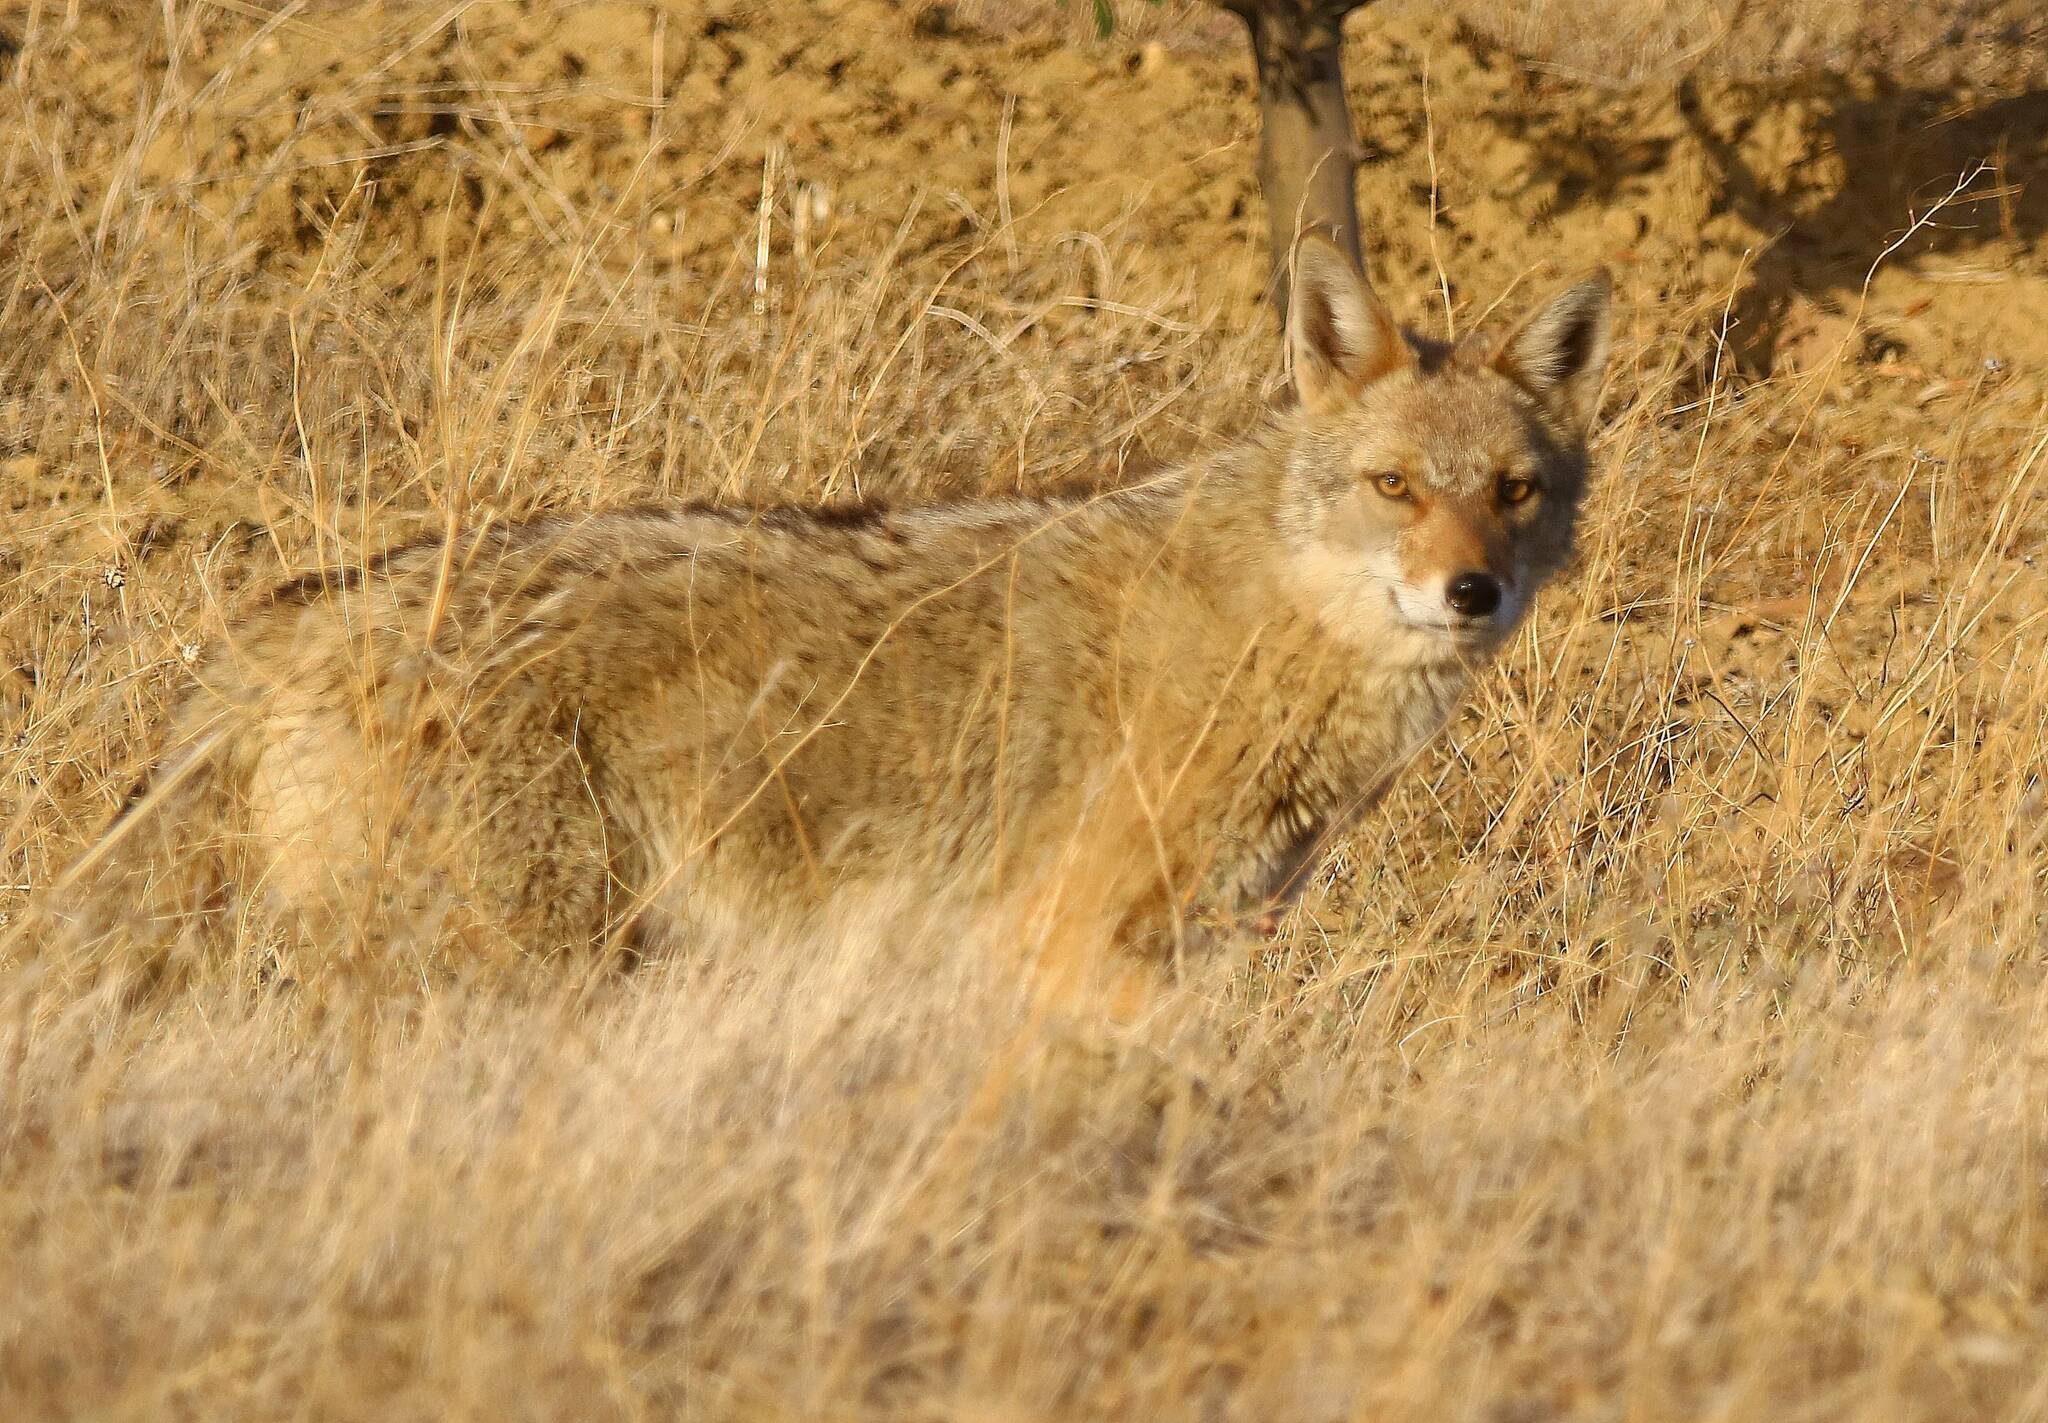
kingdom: Animalia
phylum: Chordata
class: Mammalia
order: Carnivora
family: Canidae
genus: Canis
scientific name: Canis lupaster
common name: African golden wolf
